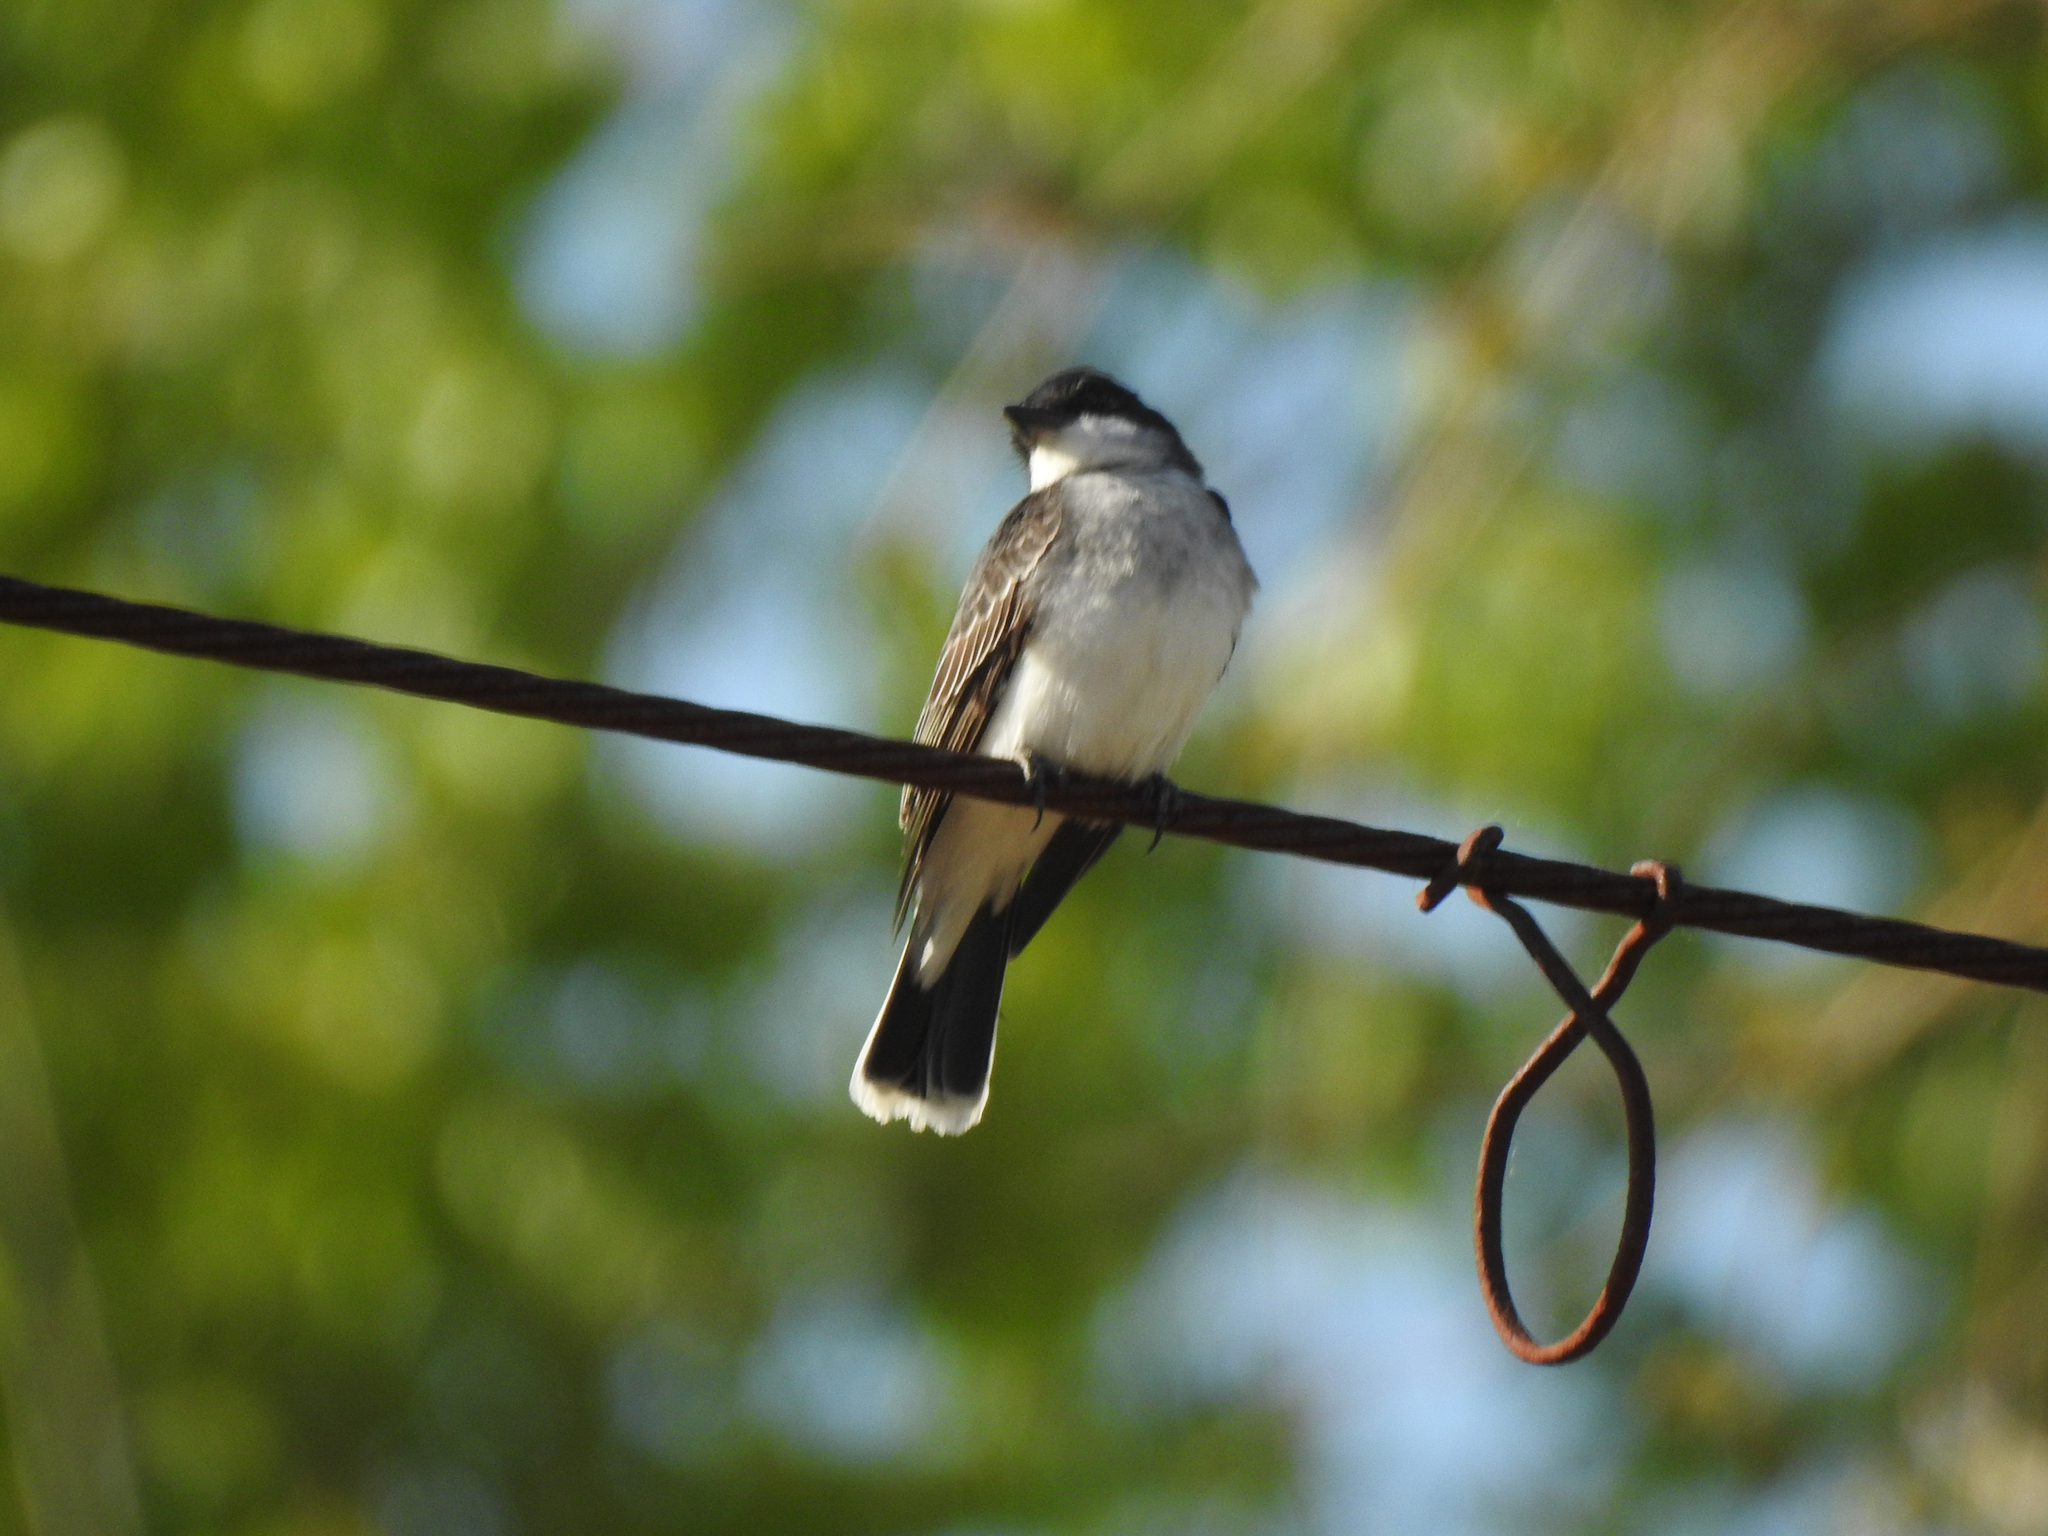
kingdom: Animalia
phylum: Chordata
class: Aves
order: Passeriformes
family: Tyrannidae
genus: Tyrannus
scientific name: Tyrannus tyrannus
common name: Eastern kingbird
